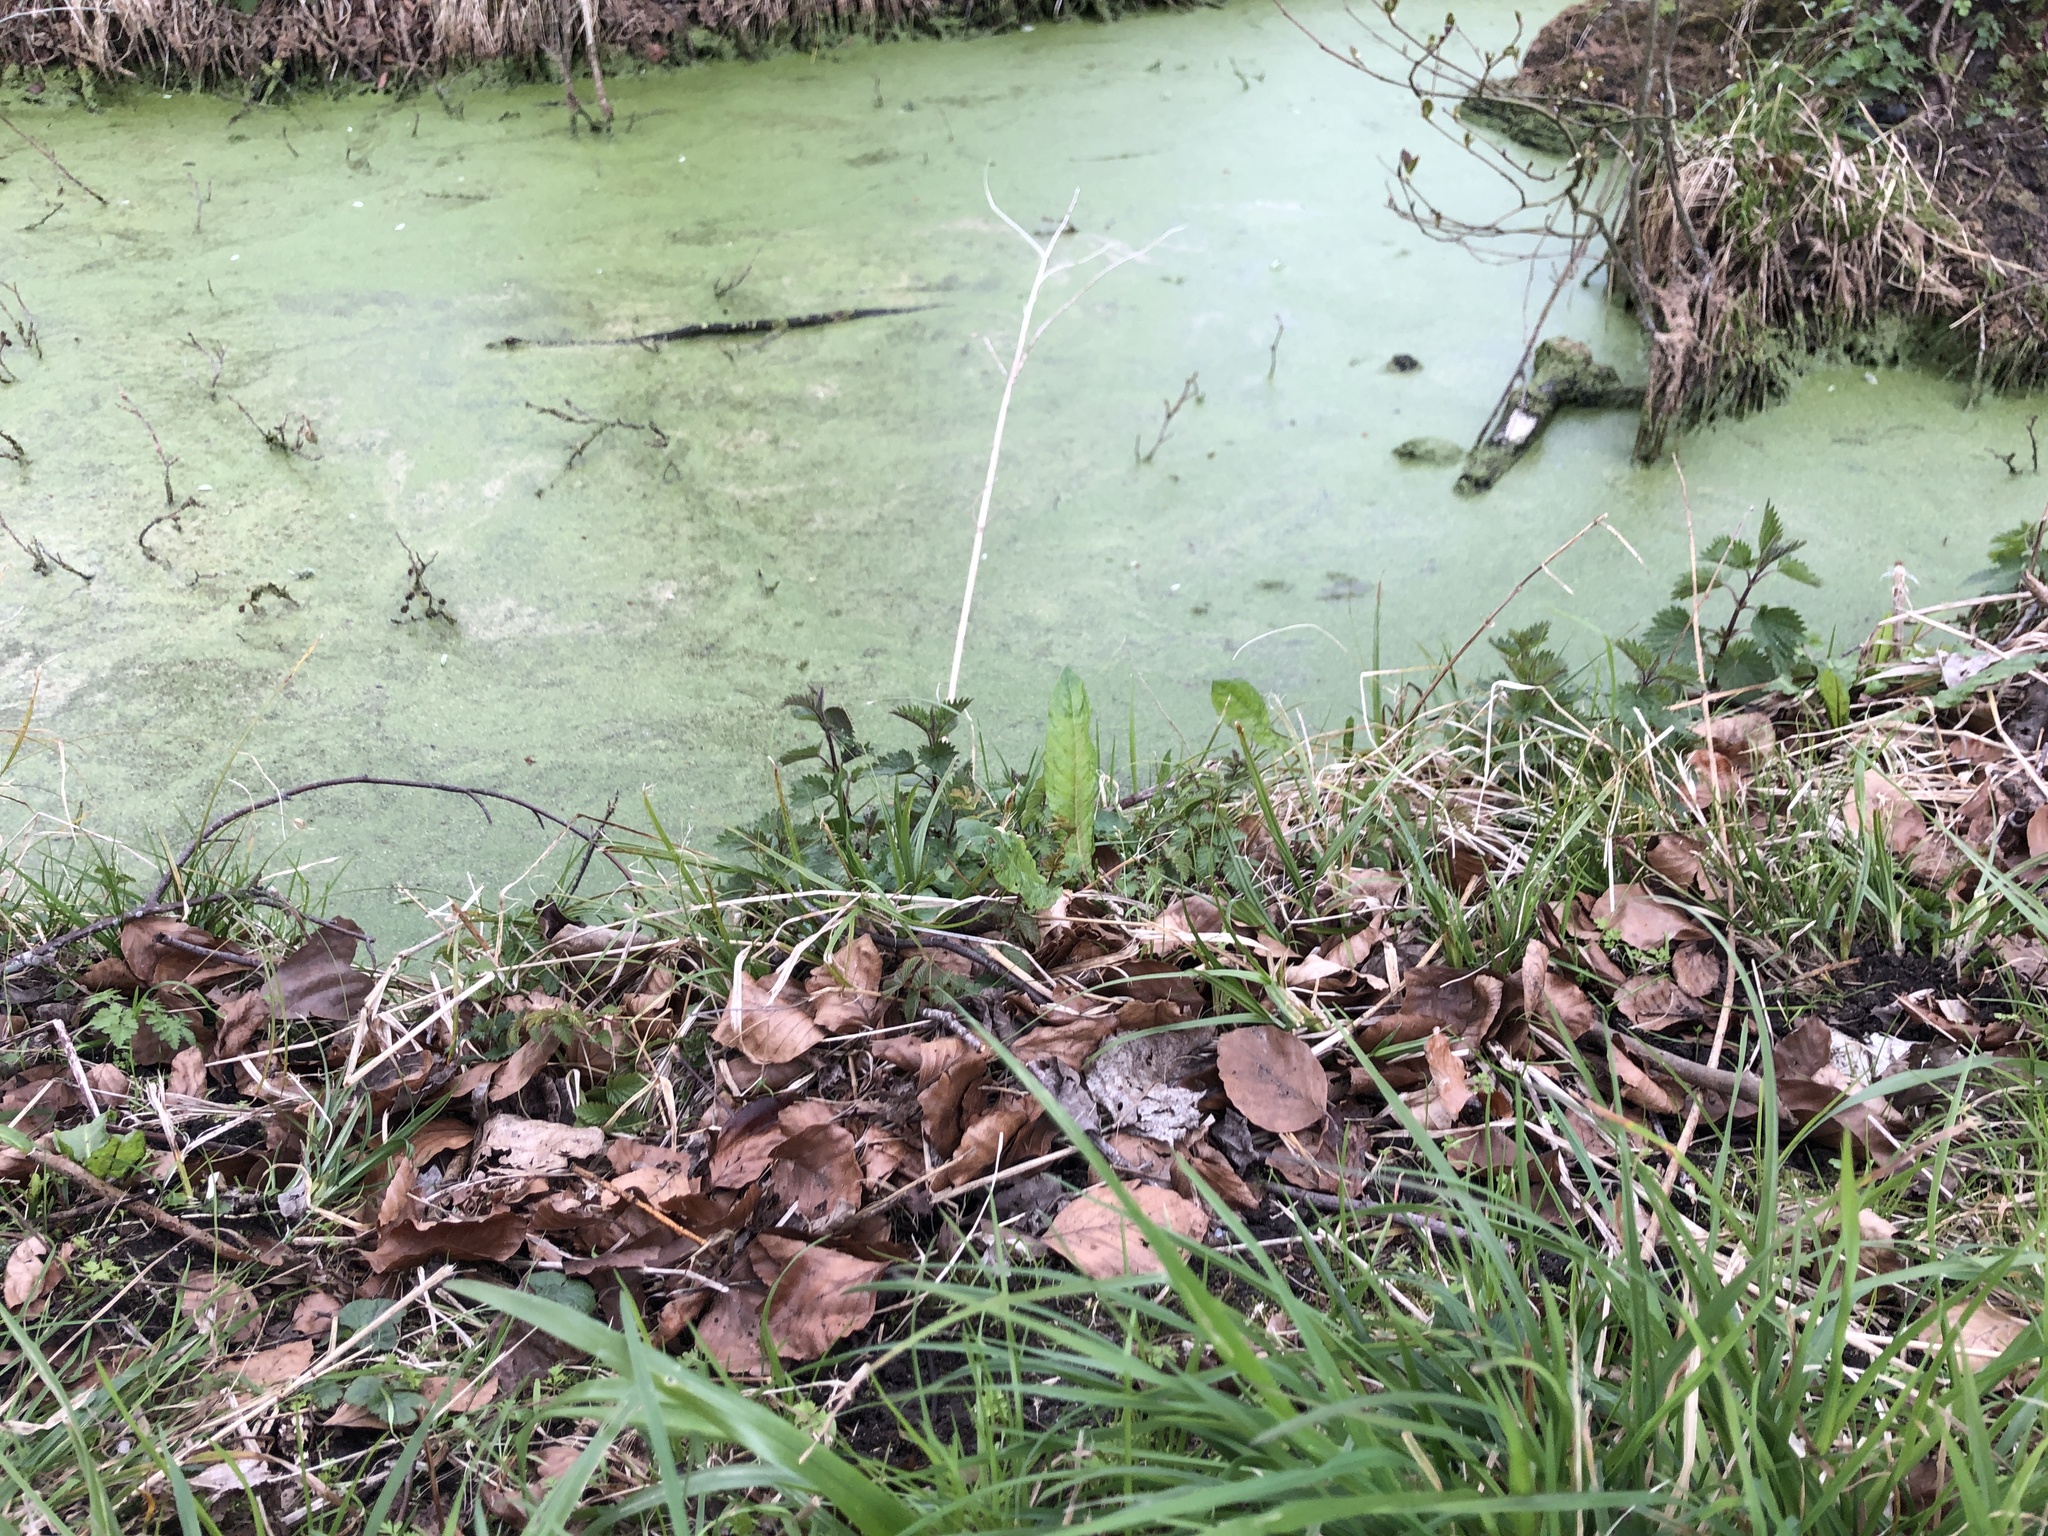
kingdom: Plantae
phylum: Bryophyta
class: Bryopsida
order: Bryales
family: Mniaceae
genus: Plagiomnium
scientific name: Plagiomnium undulatum
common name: Hart's-tongue thyme-moss
